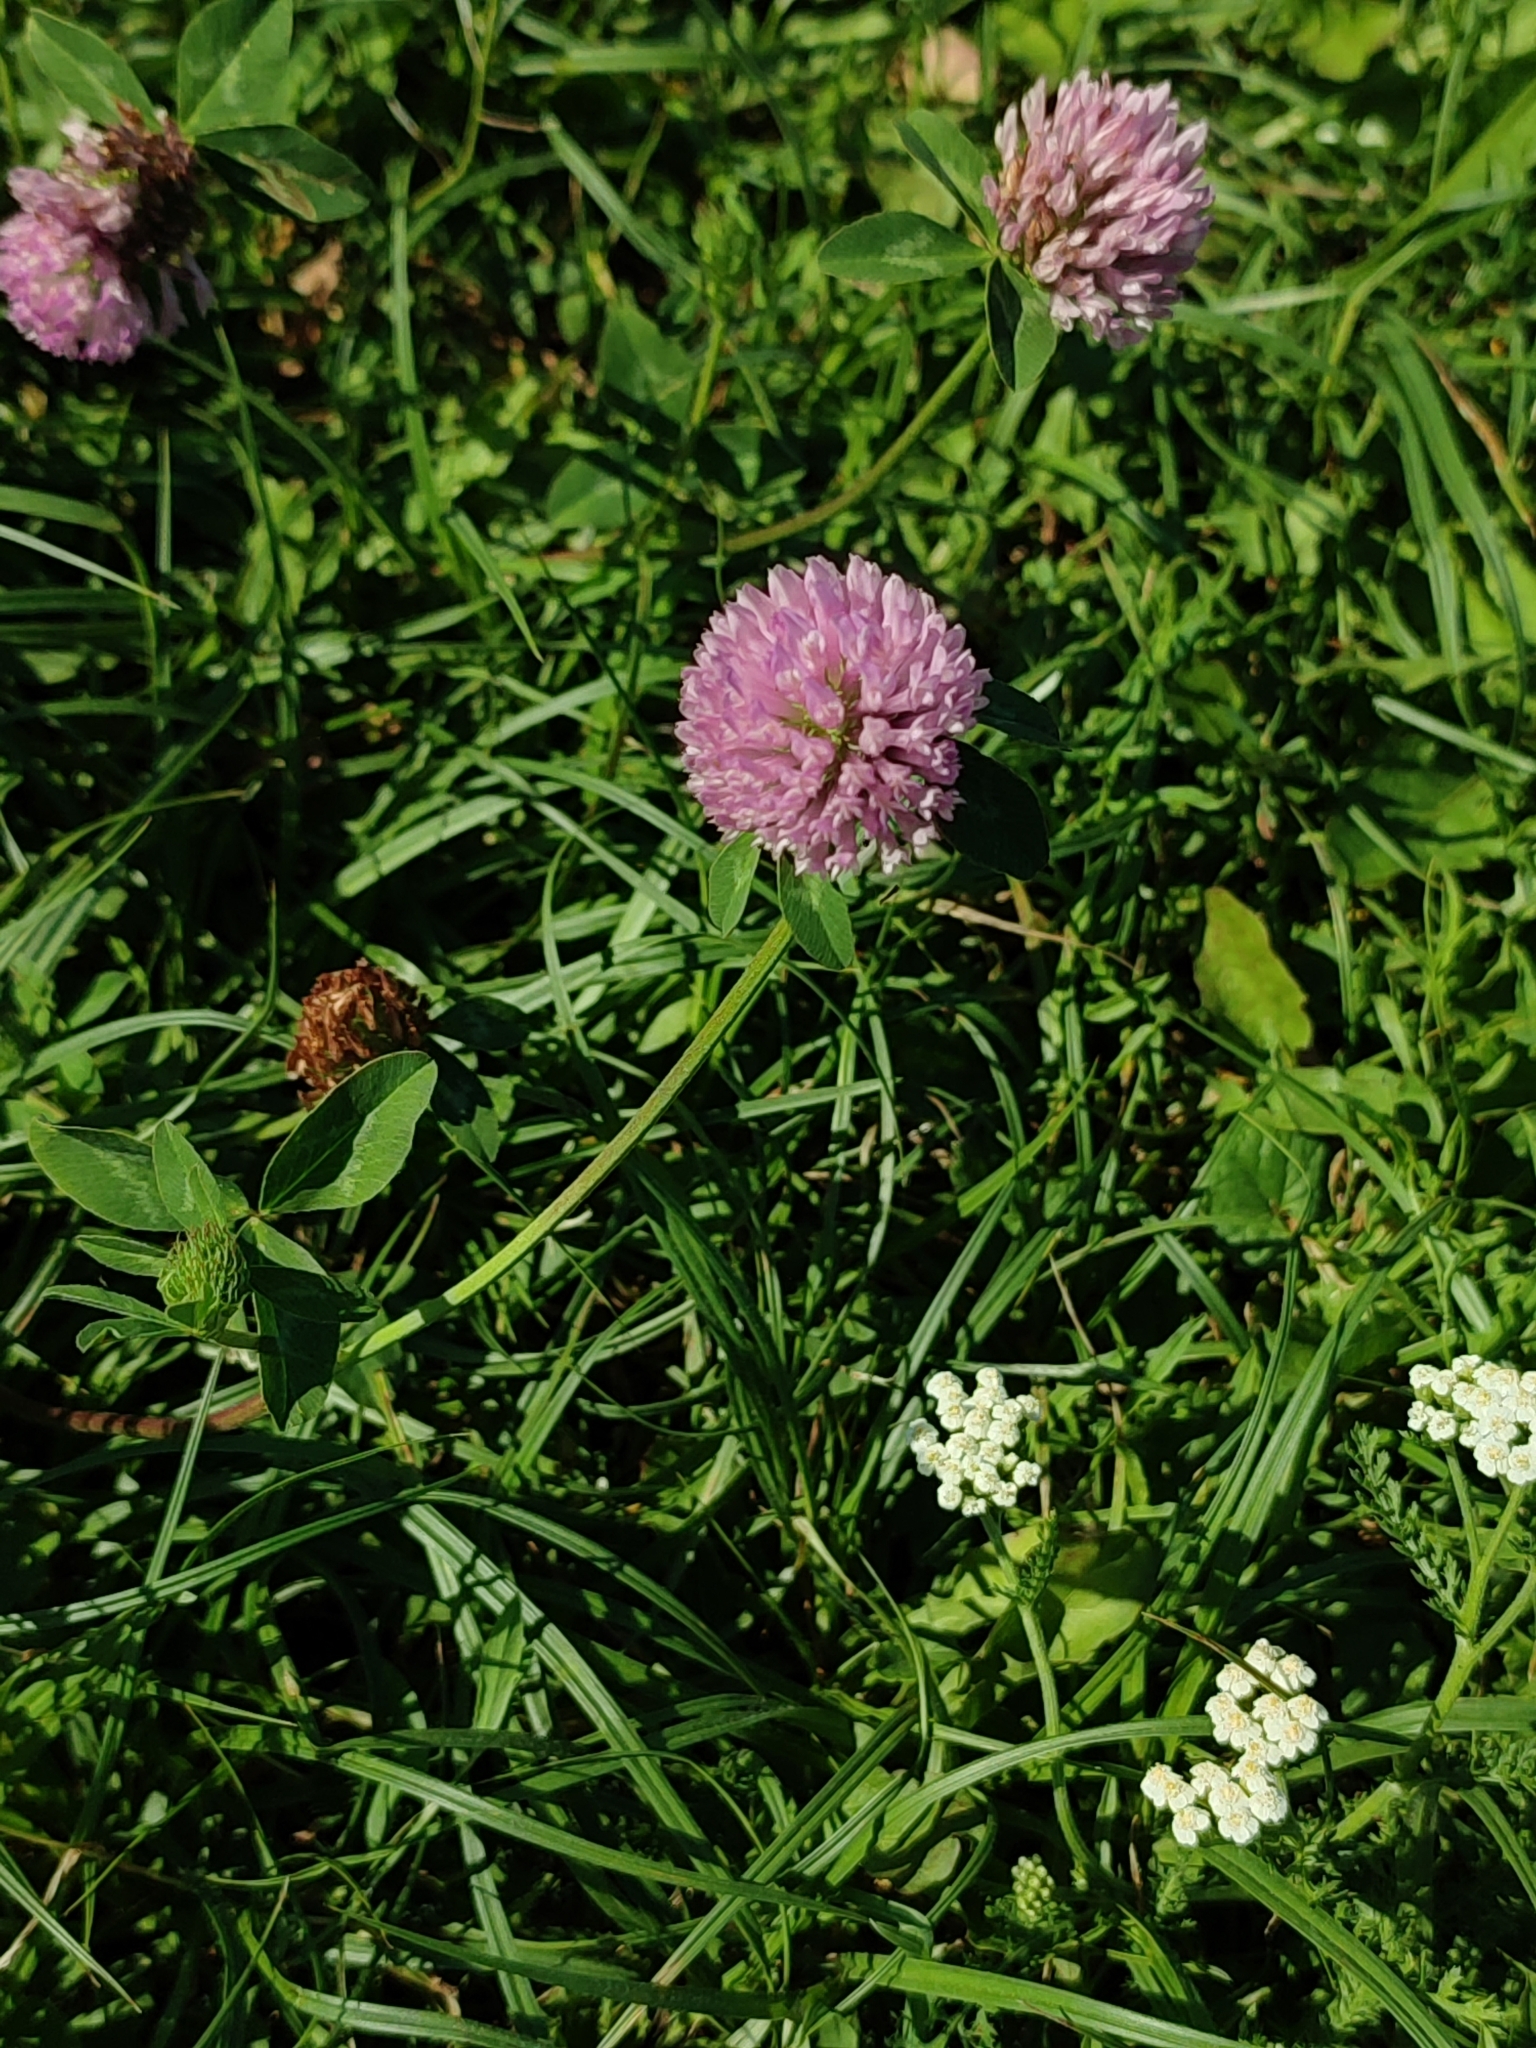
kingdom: Plantae
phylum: Tracheophyta
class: Magnoliopsida
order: Fabales
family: Fabaceae
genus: Trifolium
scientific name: Trifolium pratense
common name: Red clover
